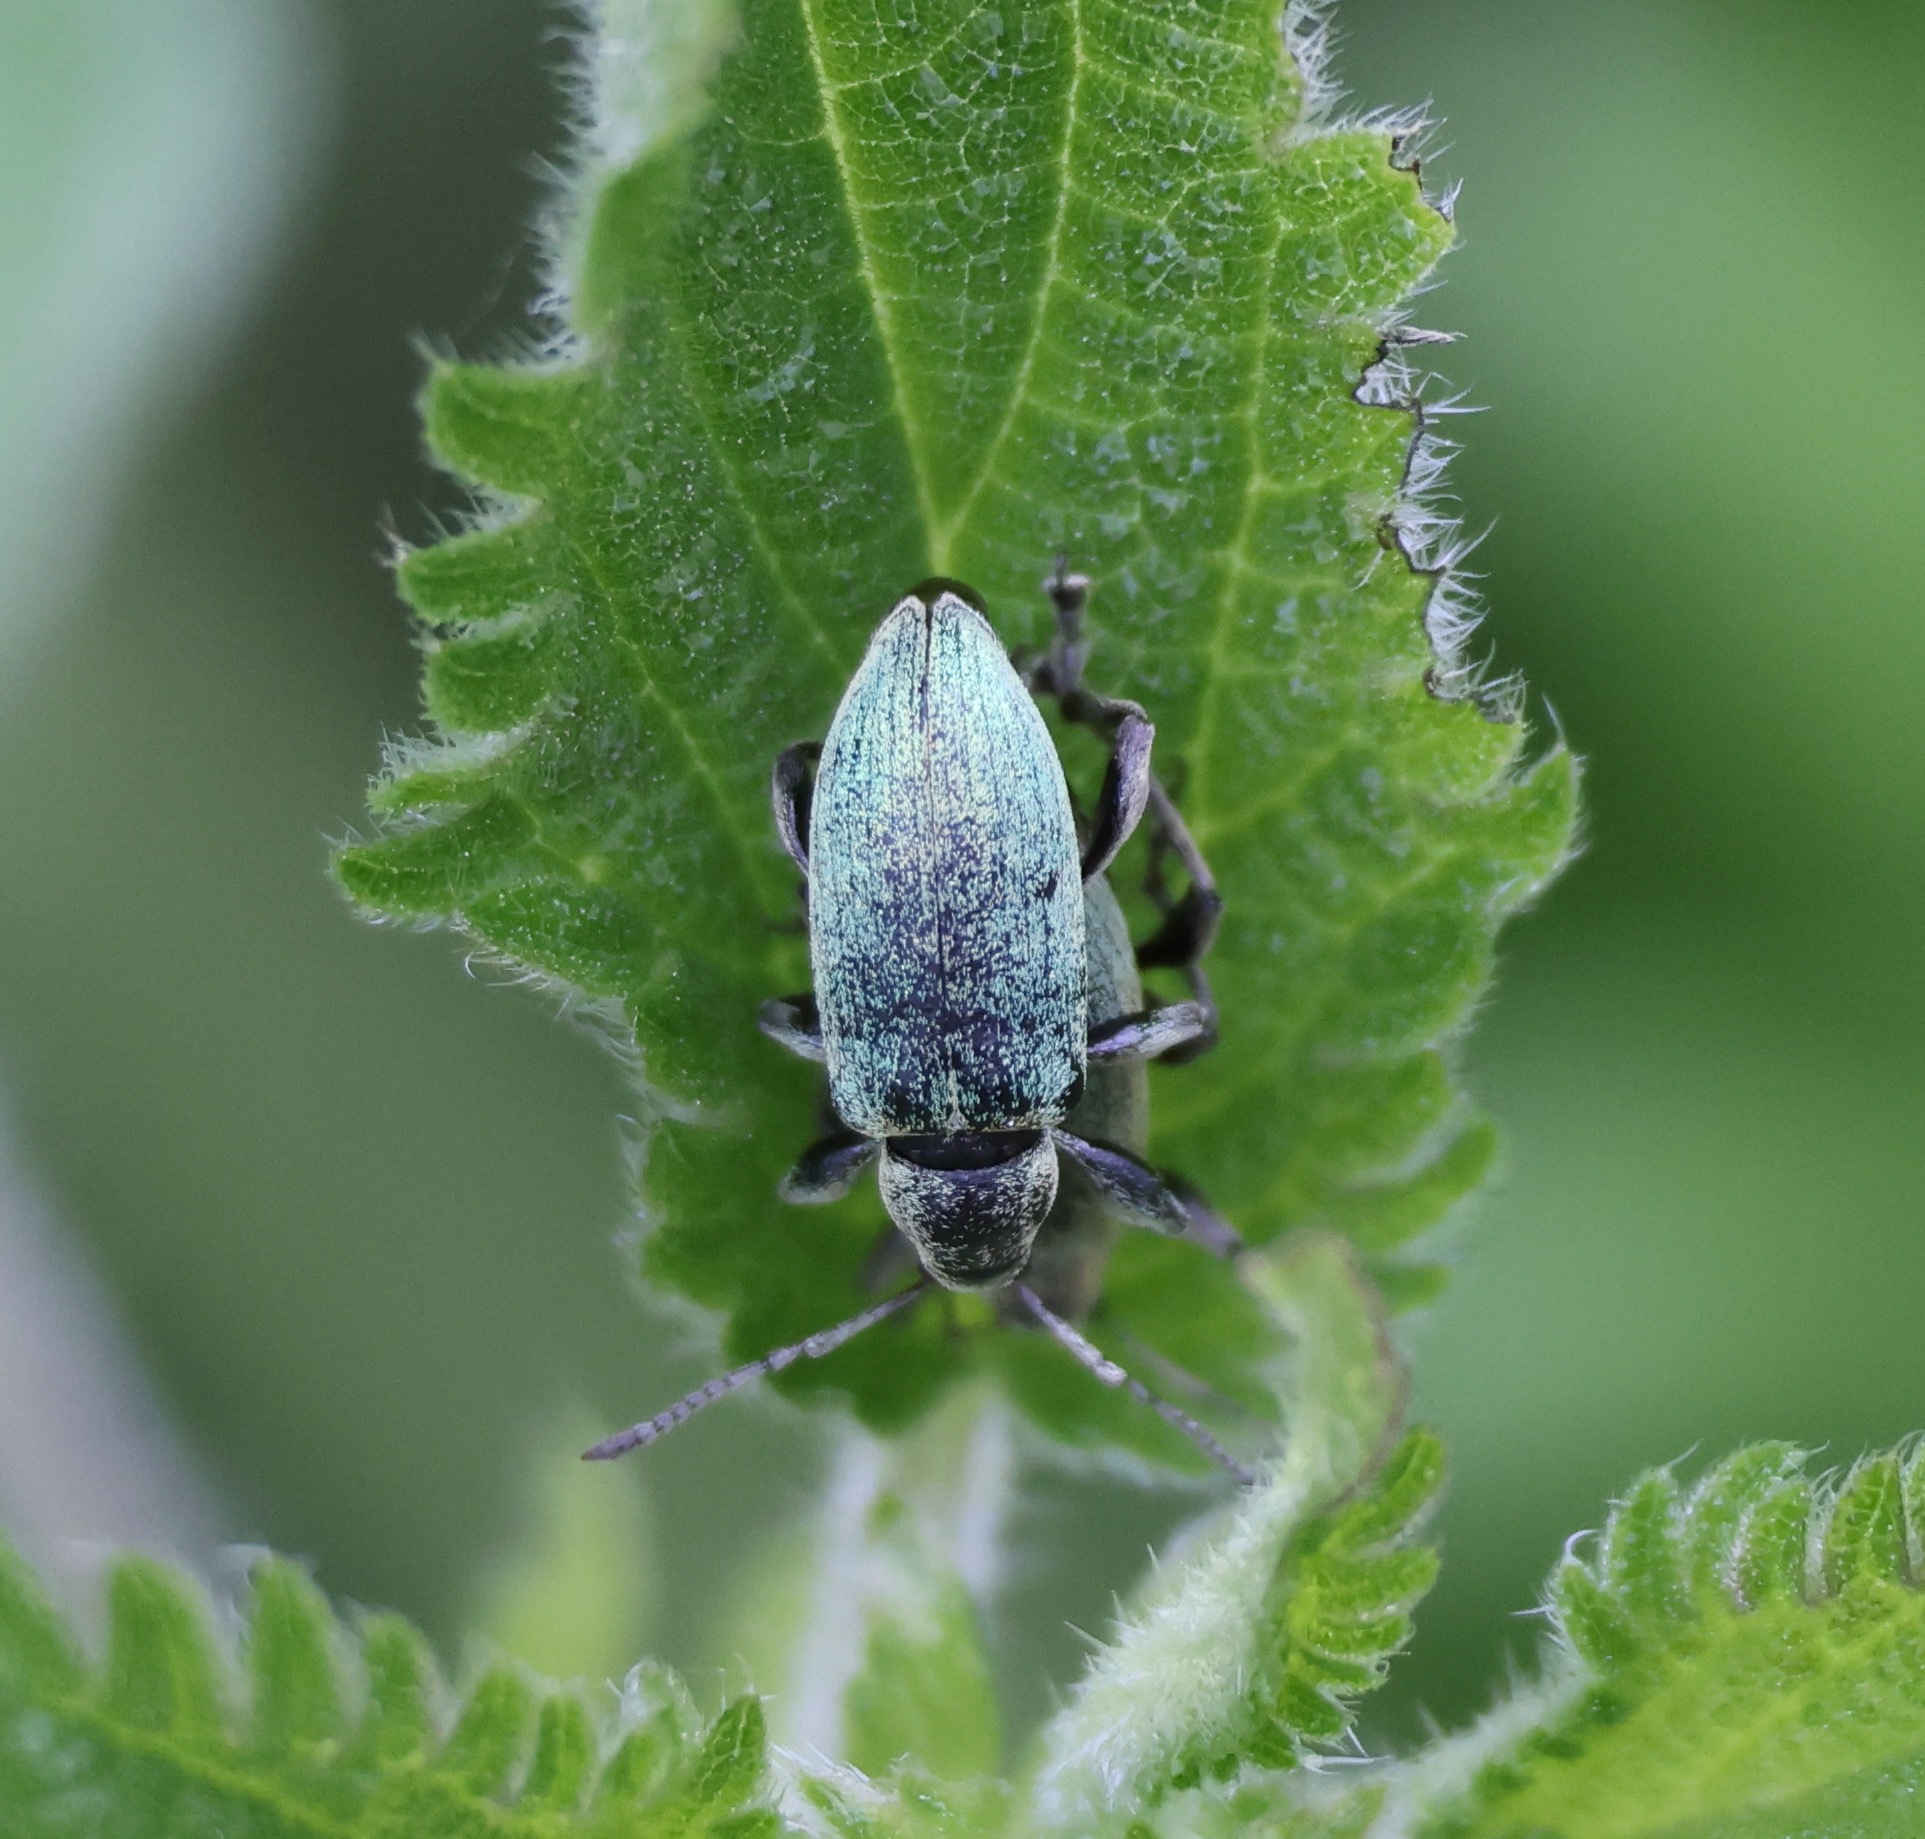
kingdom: Animalia
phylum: Arthropoda
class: Insecta
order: Coleoptera
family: Curculionidae
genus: Phyllobius
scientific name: Phyllobius pomaceus
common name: Green nettle weevil
